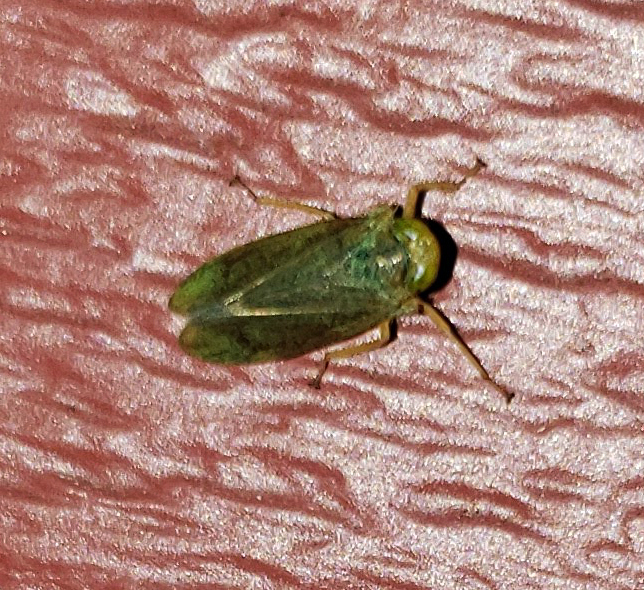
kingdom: Animalia
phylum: Arthropoda
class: Insecta
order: Hemiptera
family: Cicadellidae
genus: Jikradia
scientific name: Jikradia olitoria
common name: Coppery leafhopper
